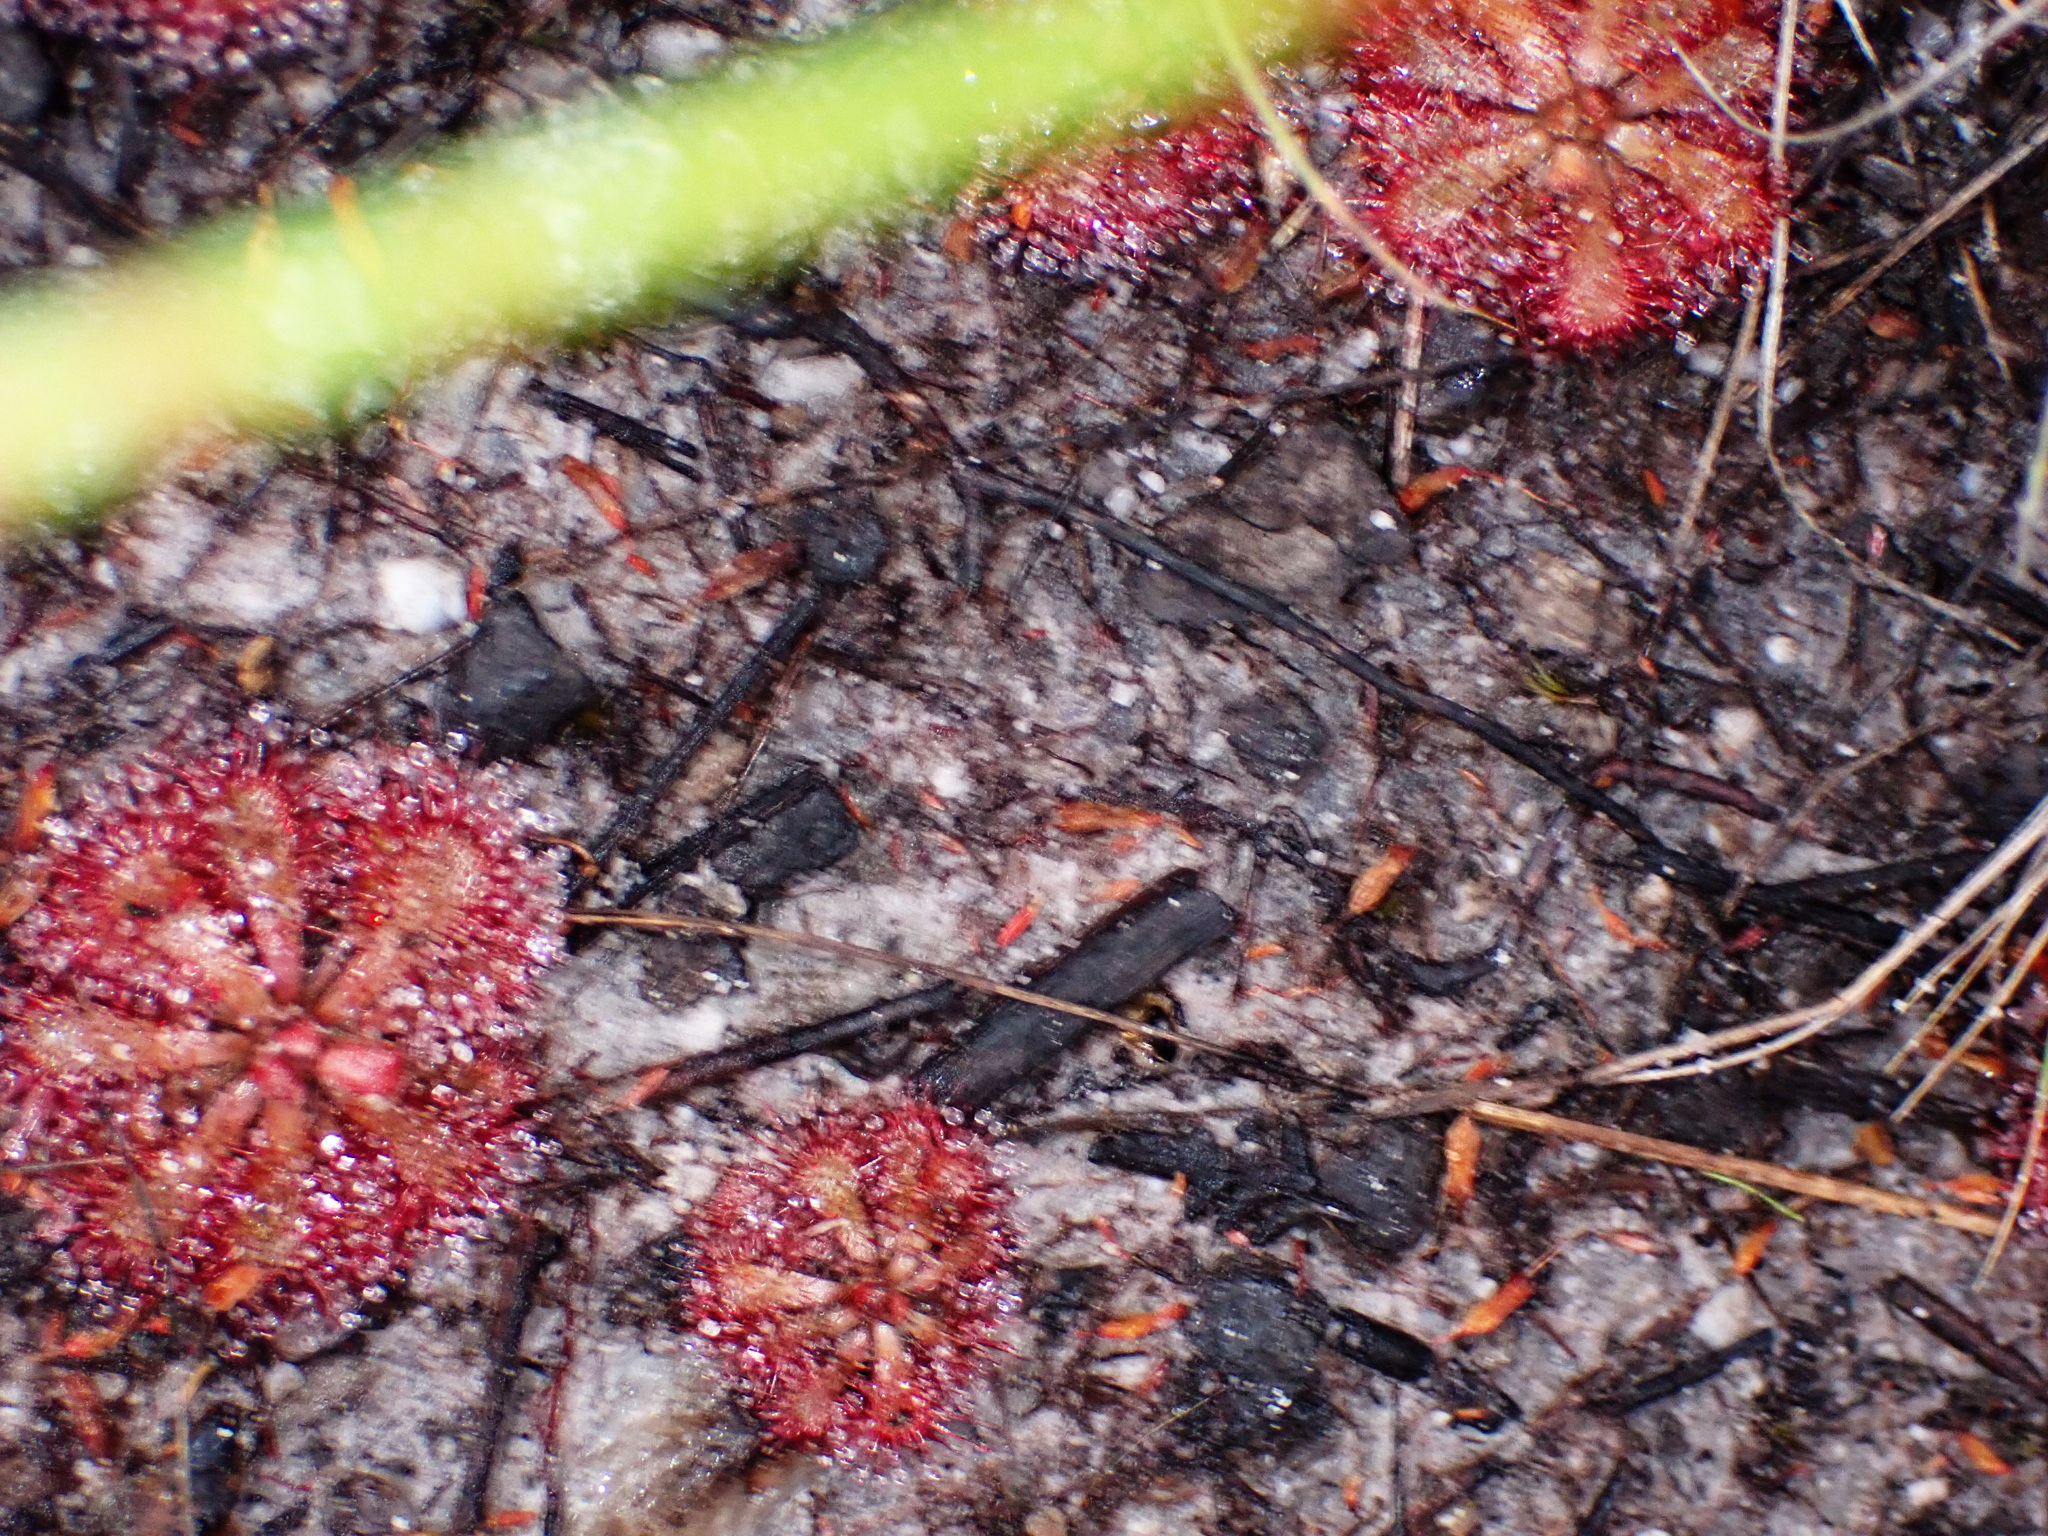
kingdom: Plantae
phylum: Tracheophyta
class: Magnoliopsida
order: Caryophyllales
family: Droseraceae
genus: Drosera
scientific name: Drosera aliciae
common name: Alice sundew
